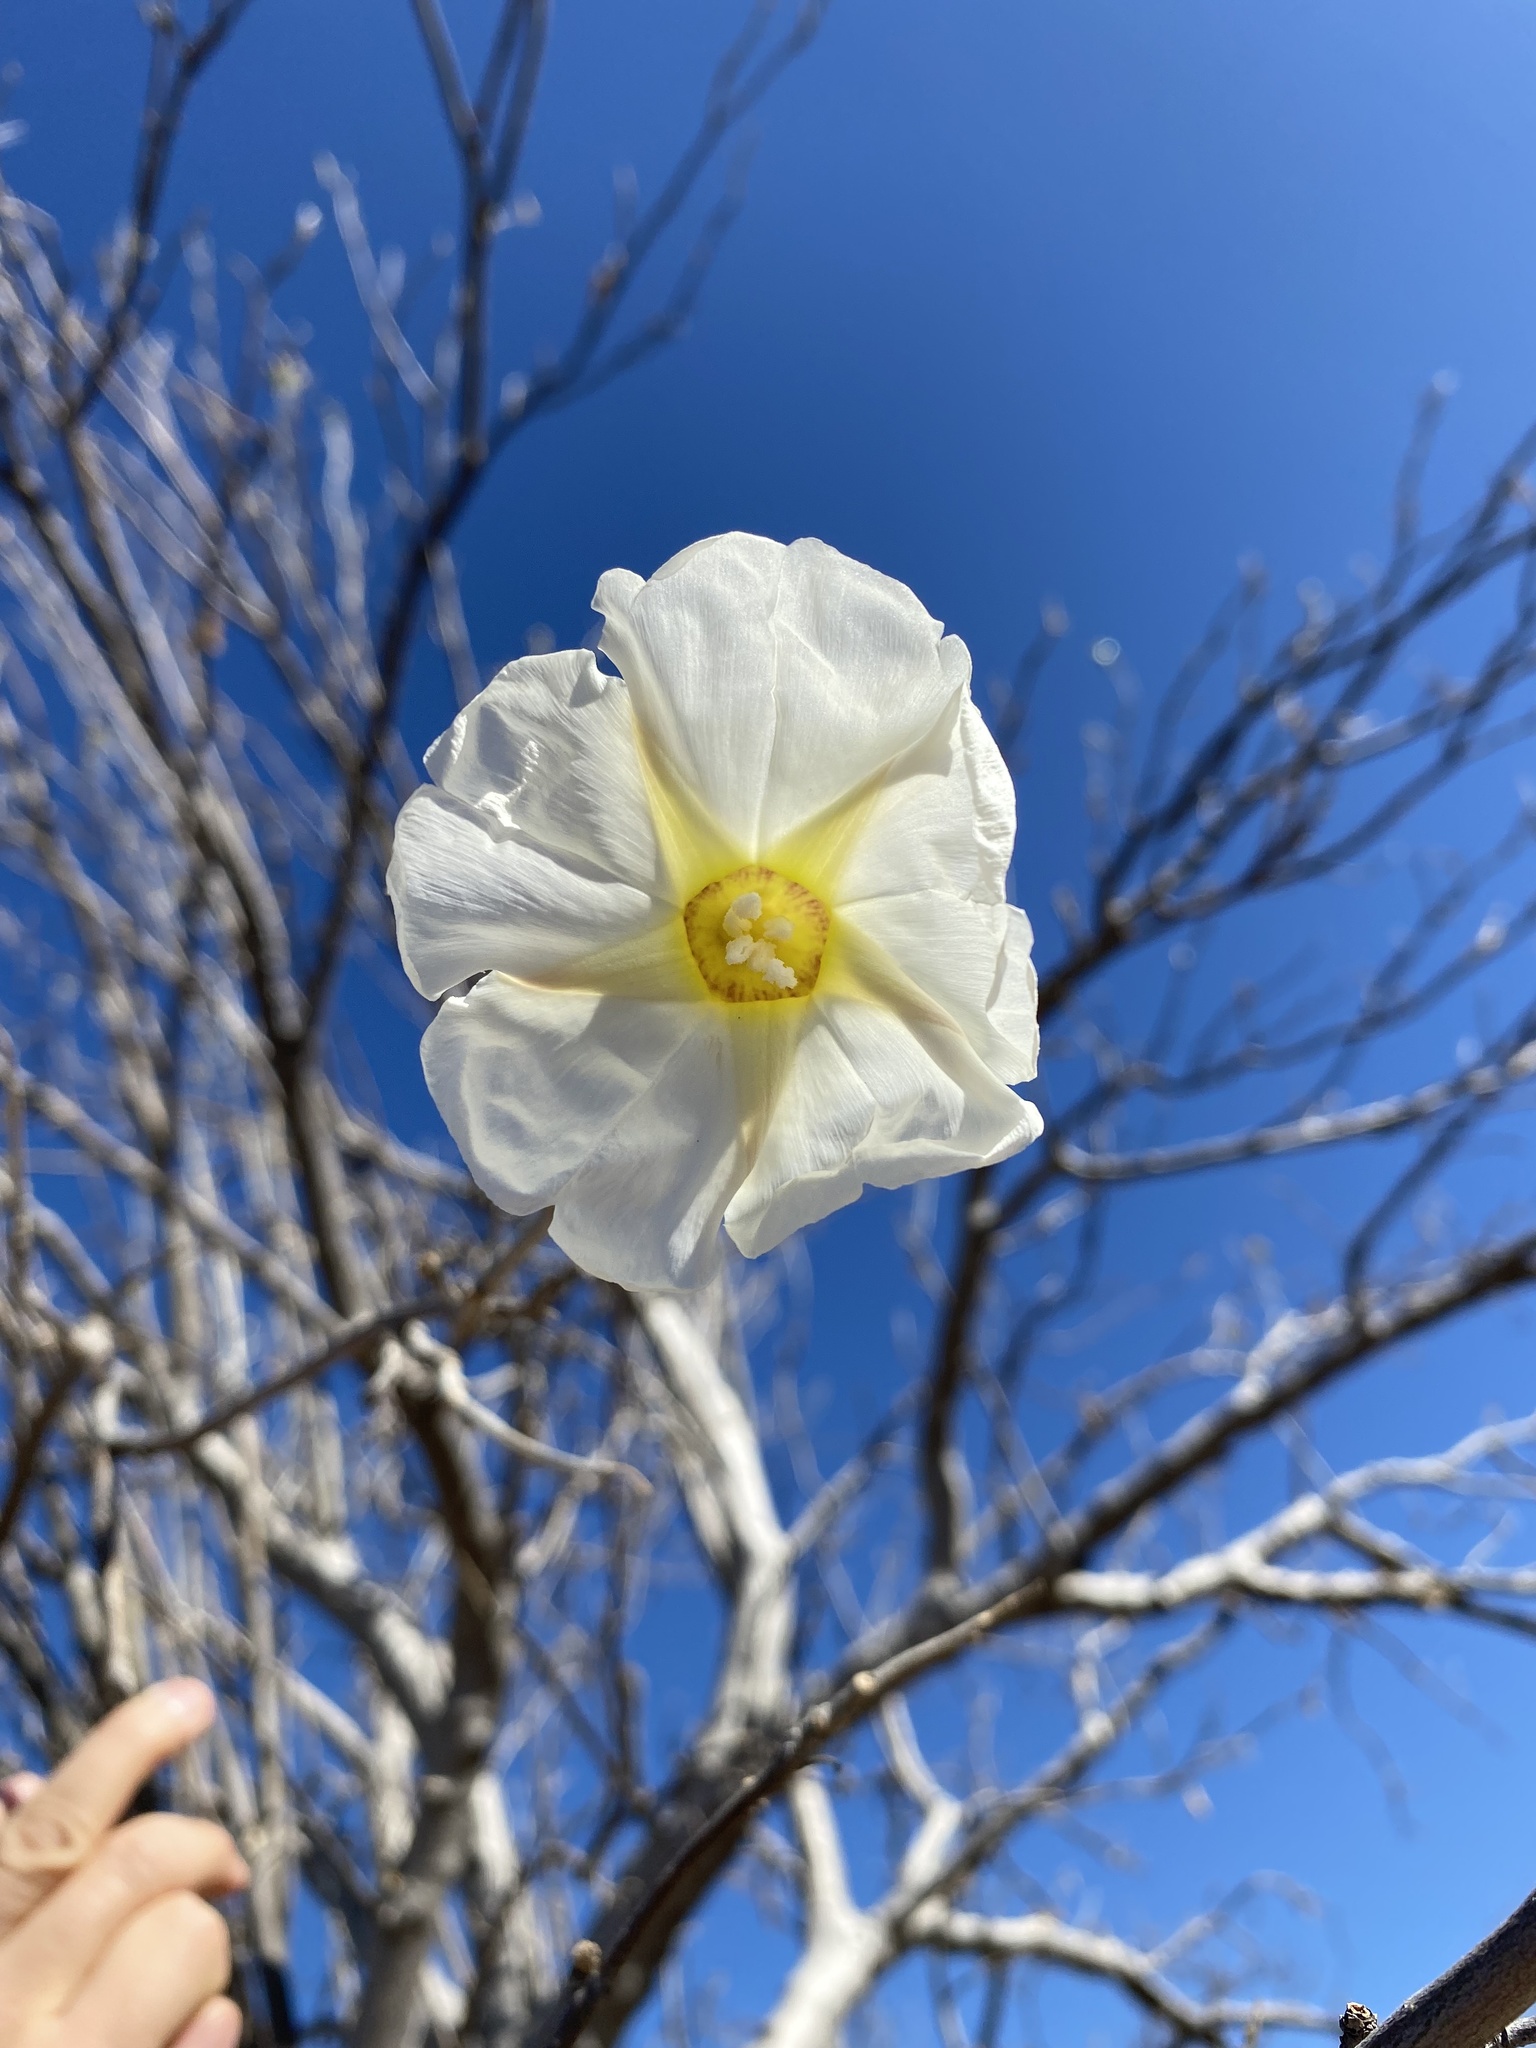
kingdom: Plantae
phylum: Tracheophyta
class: Magnoliopsida
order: Solanales
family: Convolvulaceae
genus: Ipomoea
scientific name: Ipomoea arborescens
